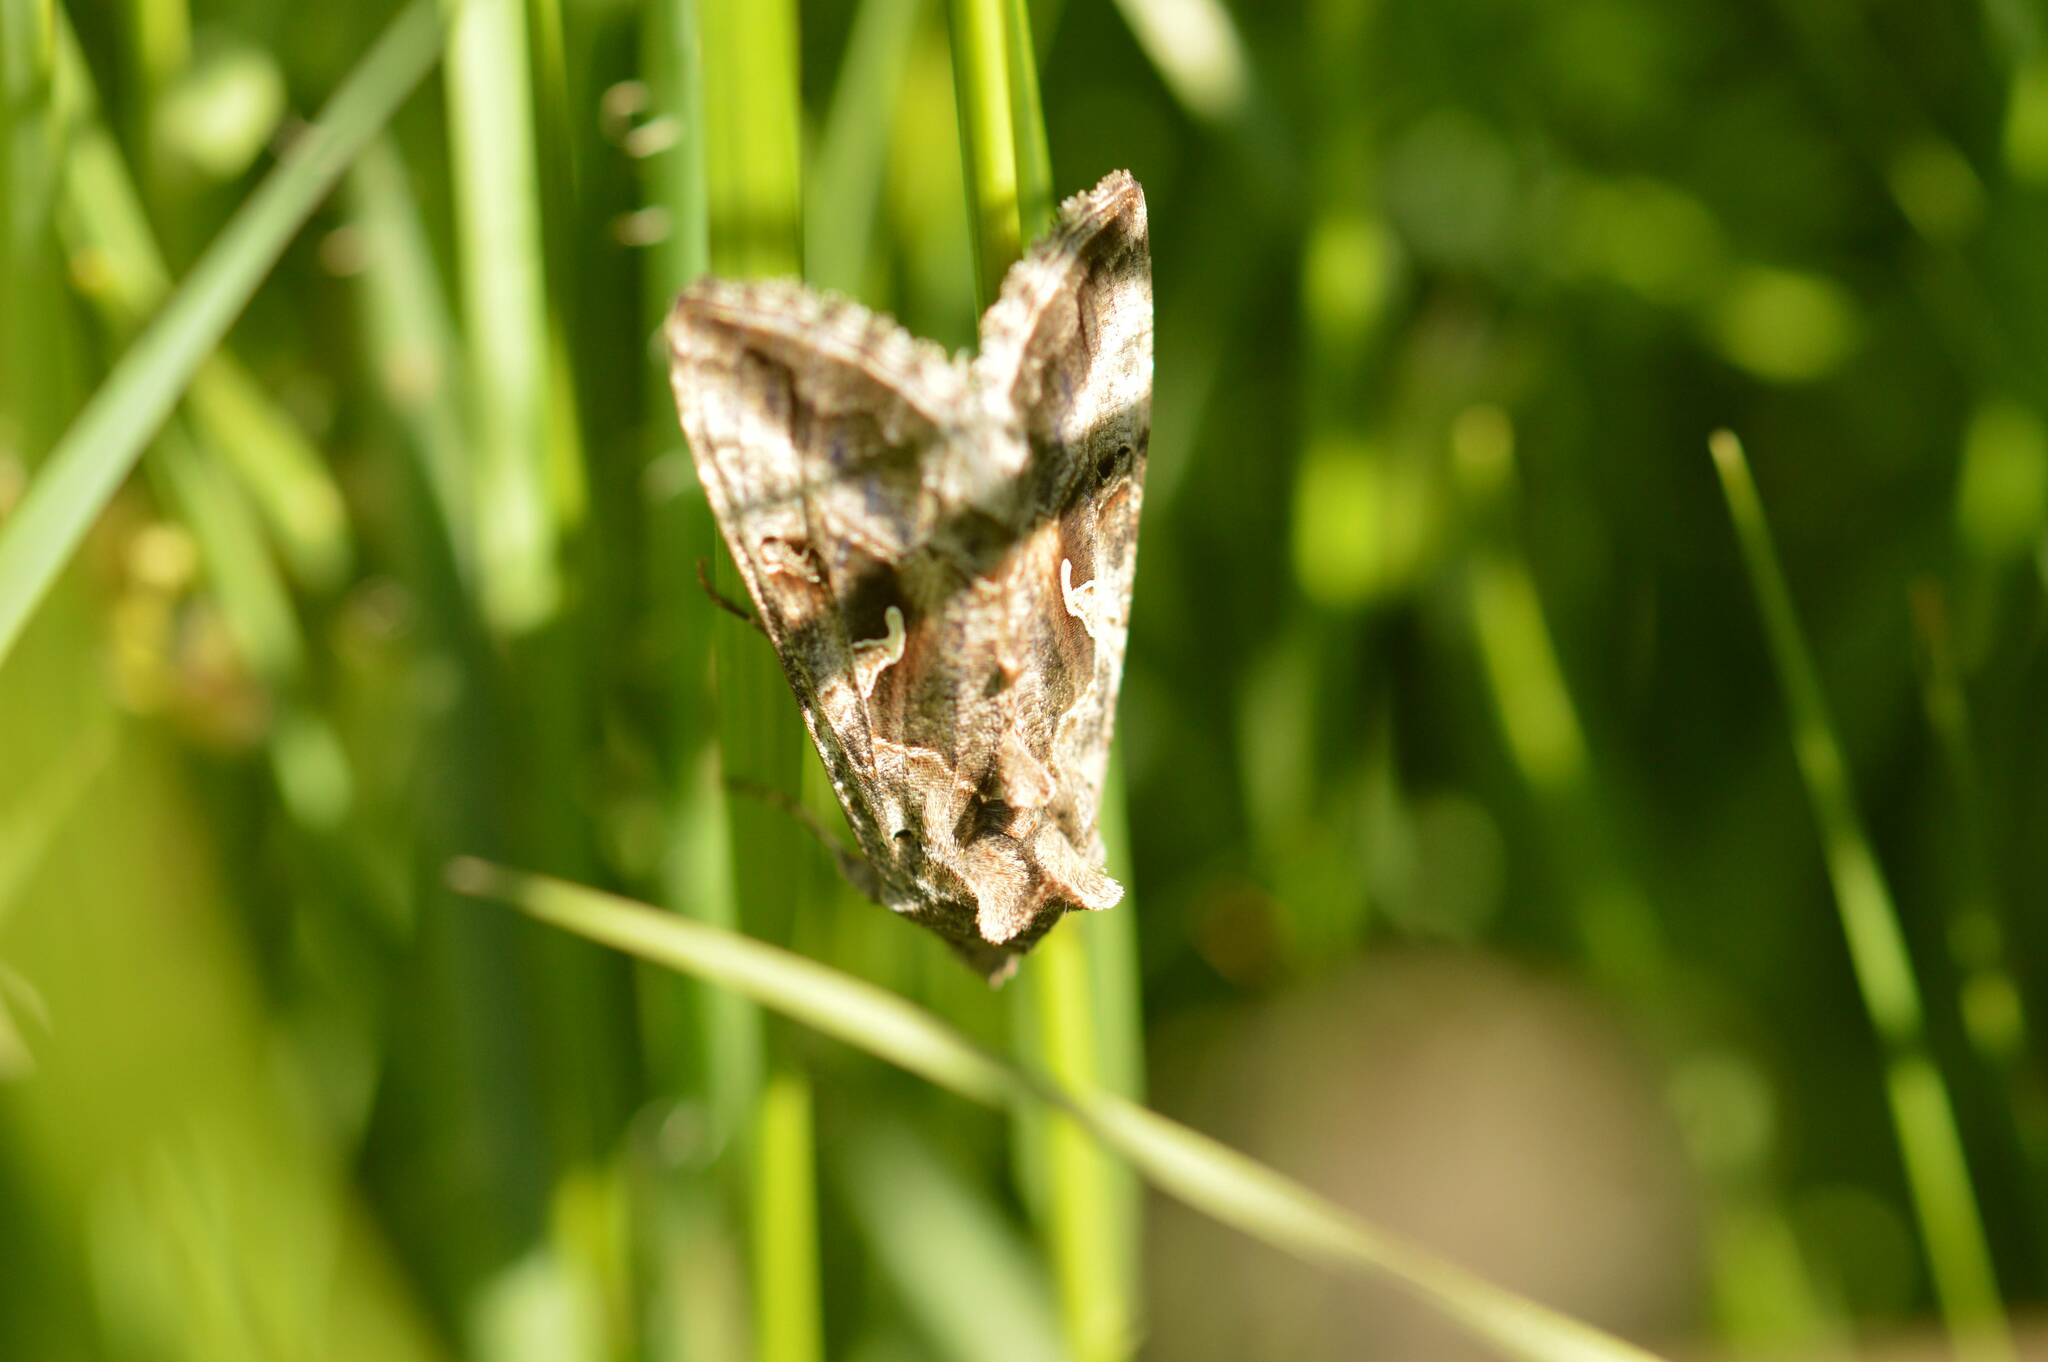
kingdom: Animalia
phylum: Arthropoda
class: Insecta
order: Lepidoptera
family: Noctuidae
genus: Autographa
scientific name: Autographa gamma
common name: Silver y
